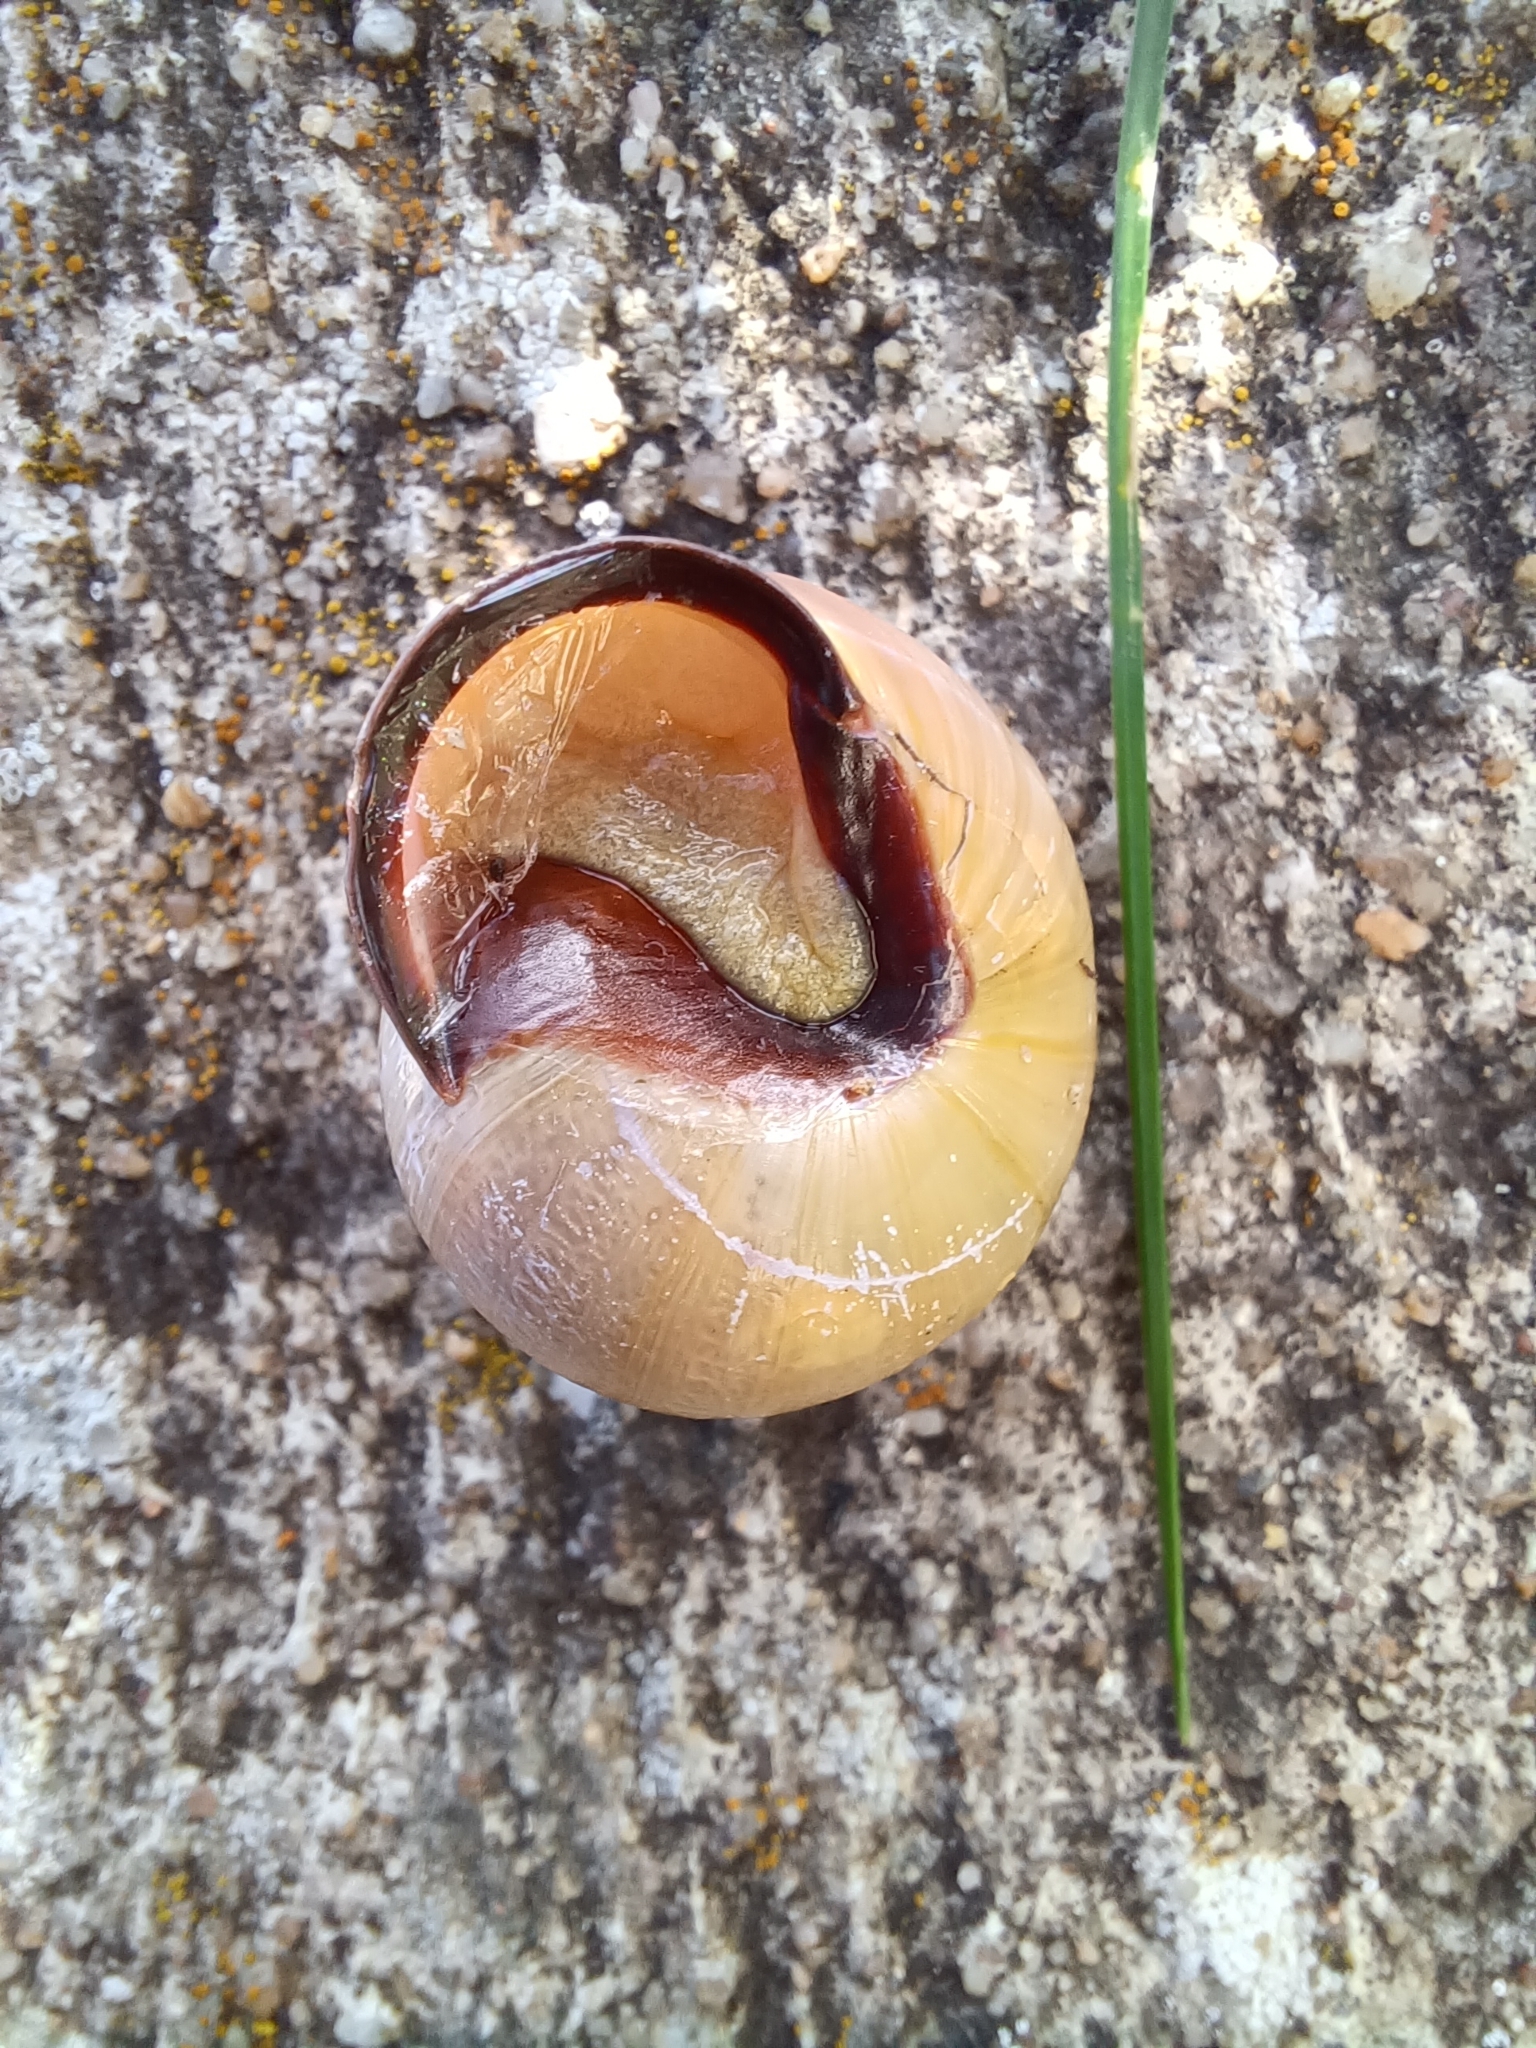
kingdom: Animalia
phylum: Mollusca
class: Gastropoda
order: Stylommatophora
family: Helicidae
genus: Cepaea
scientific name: Cepaea nemoralis
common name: Grovesnail
